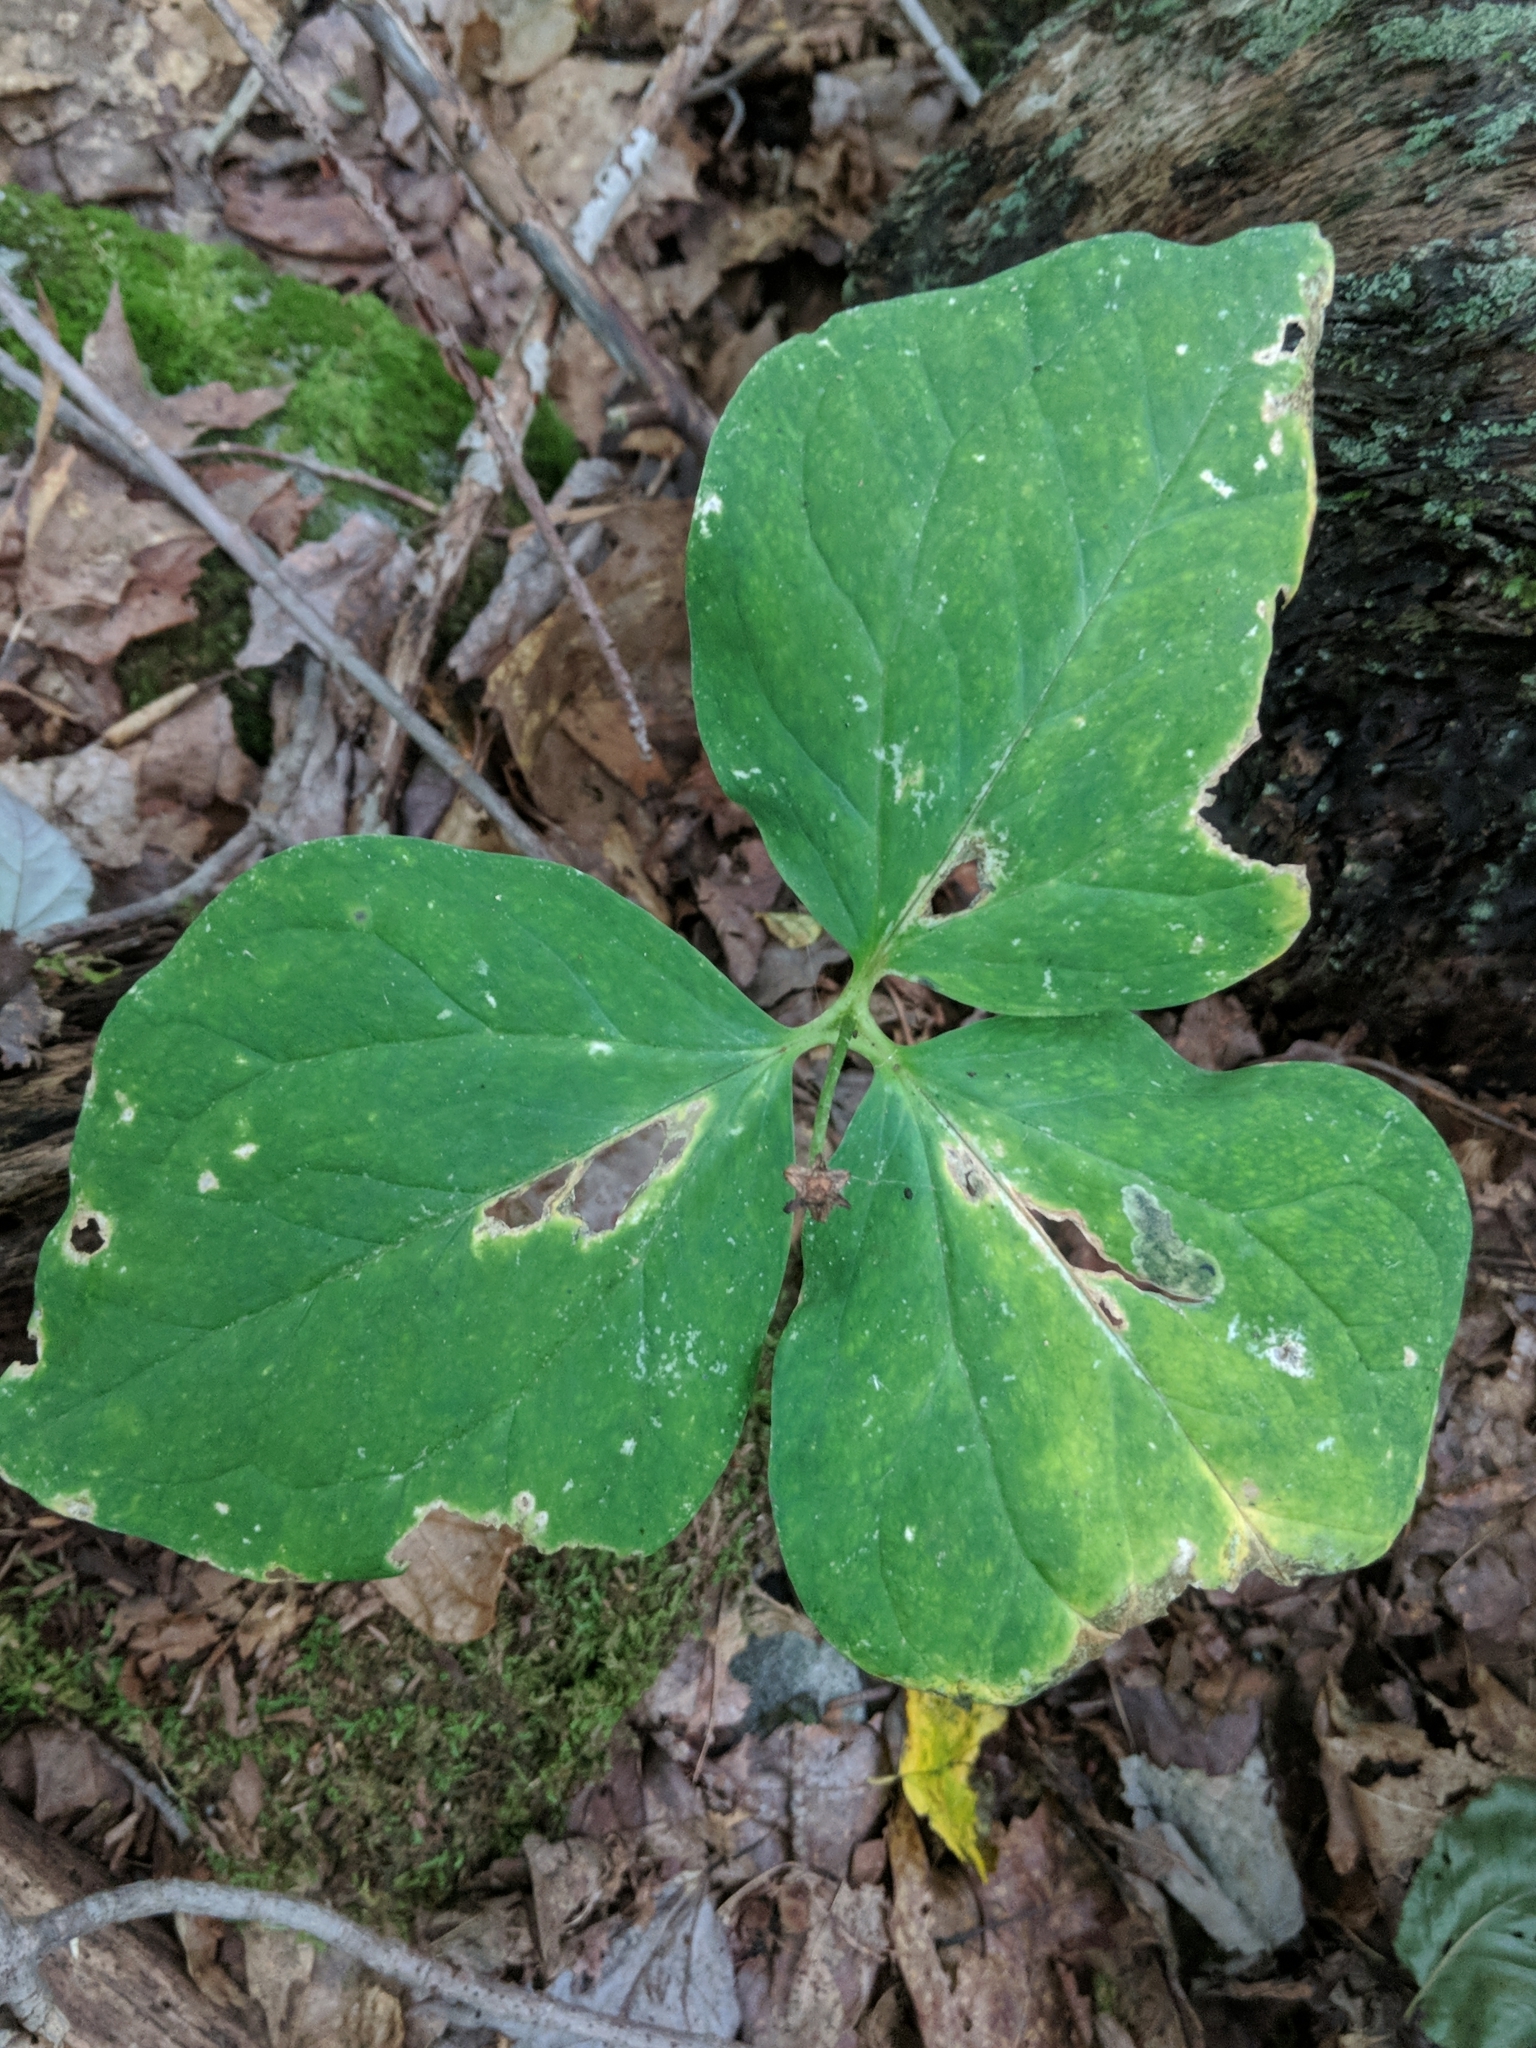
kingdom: Plantae
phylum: Tracheophyta
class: Liliopsida
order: Liliales
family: Melanthiaceae
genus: Trillium
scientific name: Trillium undulatum
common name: Paint trillium
